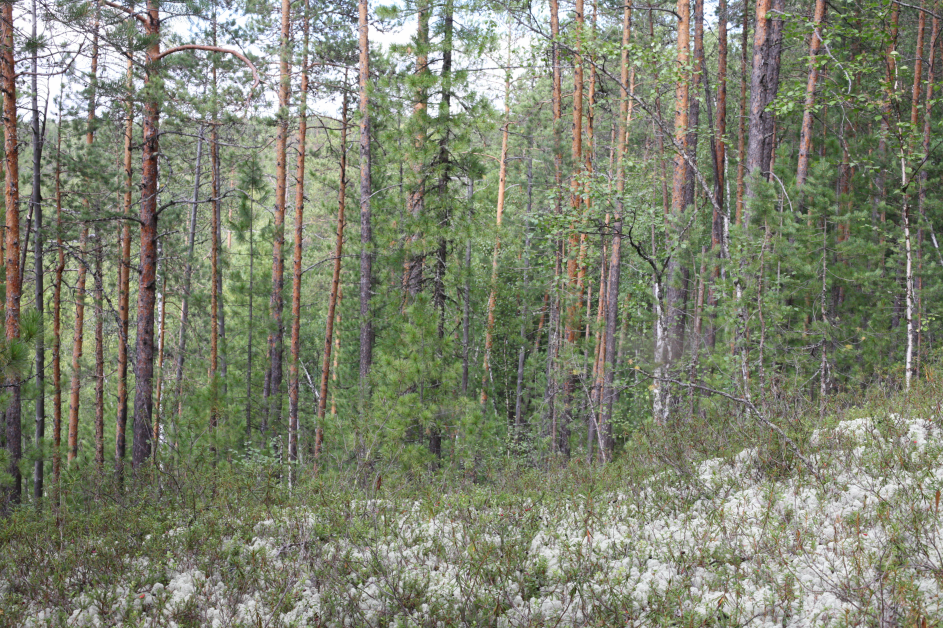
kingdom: Plantae
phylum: Tracheophyta
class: Pinopsida
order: Pinales
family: Pinaceae
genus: Pinus
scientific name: Pinus sylvestris
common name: Scots pine
